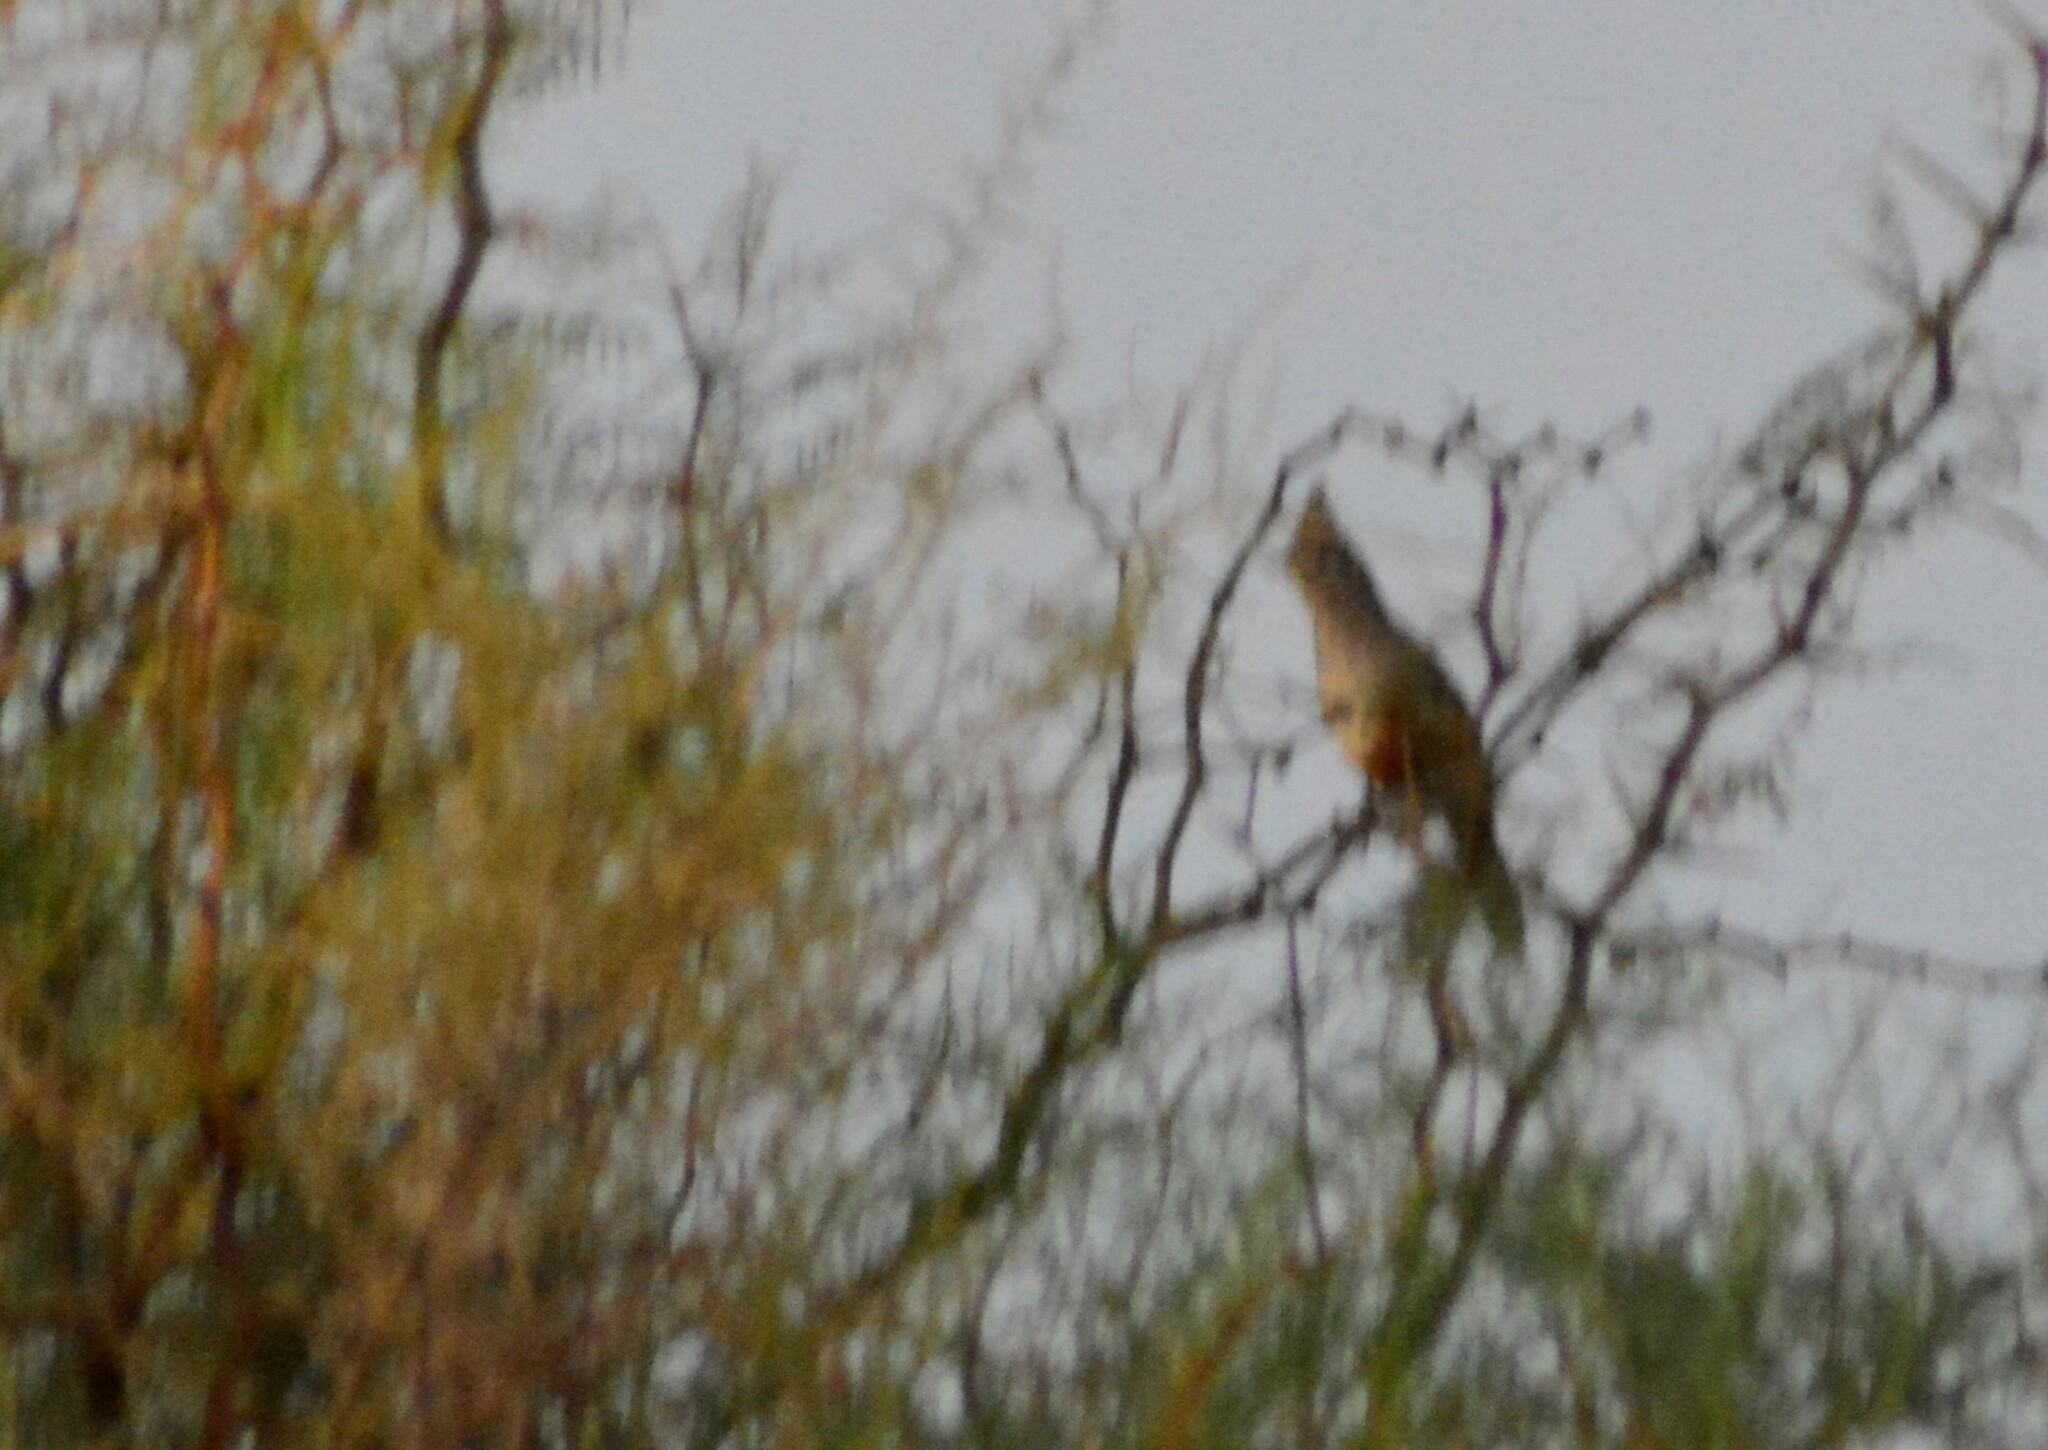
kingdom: Animalia
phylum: Chordata
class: Aves
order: Passeriformes
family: Rhinocryptidae
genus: Rhinocrypta
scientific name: Rhinocrypta lanceolata
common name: Crested gallito
